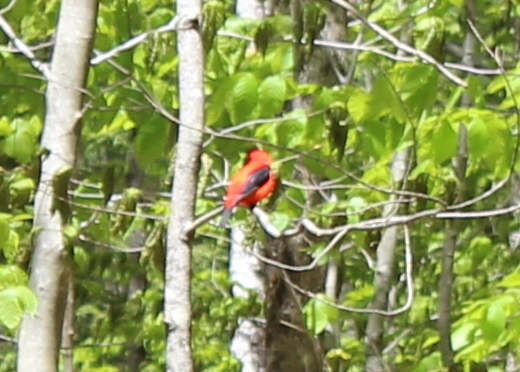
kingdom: Animalia
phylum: Chordata
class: Aves
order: Passeriformes
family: Cardinalidae
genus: Piranga
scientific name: Piranga olivacea
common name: Scarlet tanager
